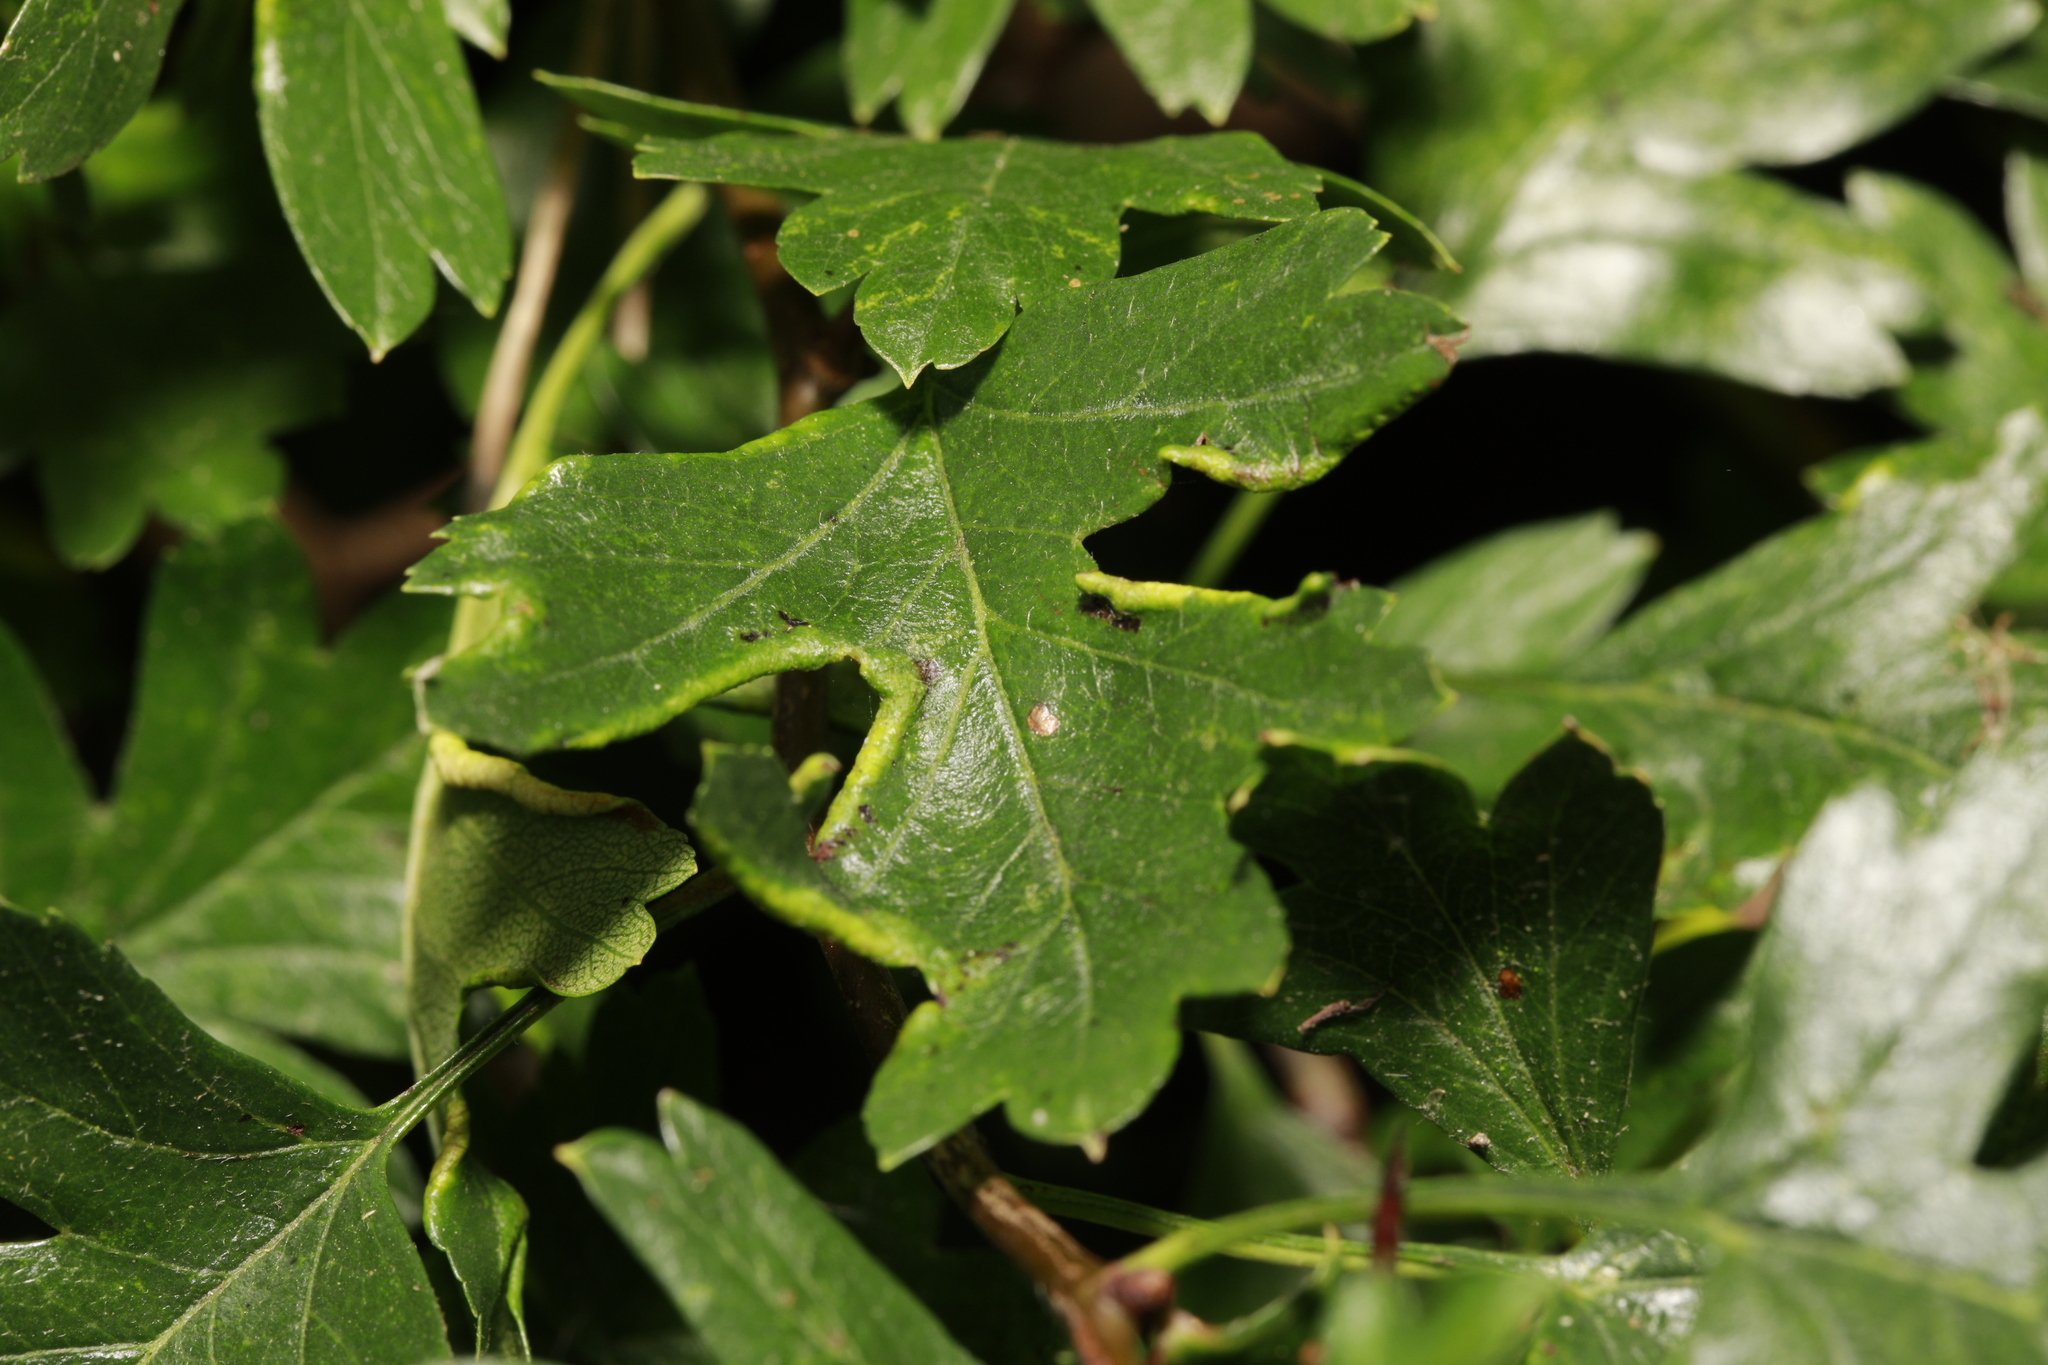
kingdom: Animalia
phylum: Arthropoda
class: Arachnida
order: Trombidiformes
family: Eriophyidae
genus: Phyllocoptes
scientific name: Phyllocoptes goniothorax
